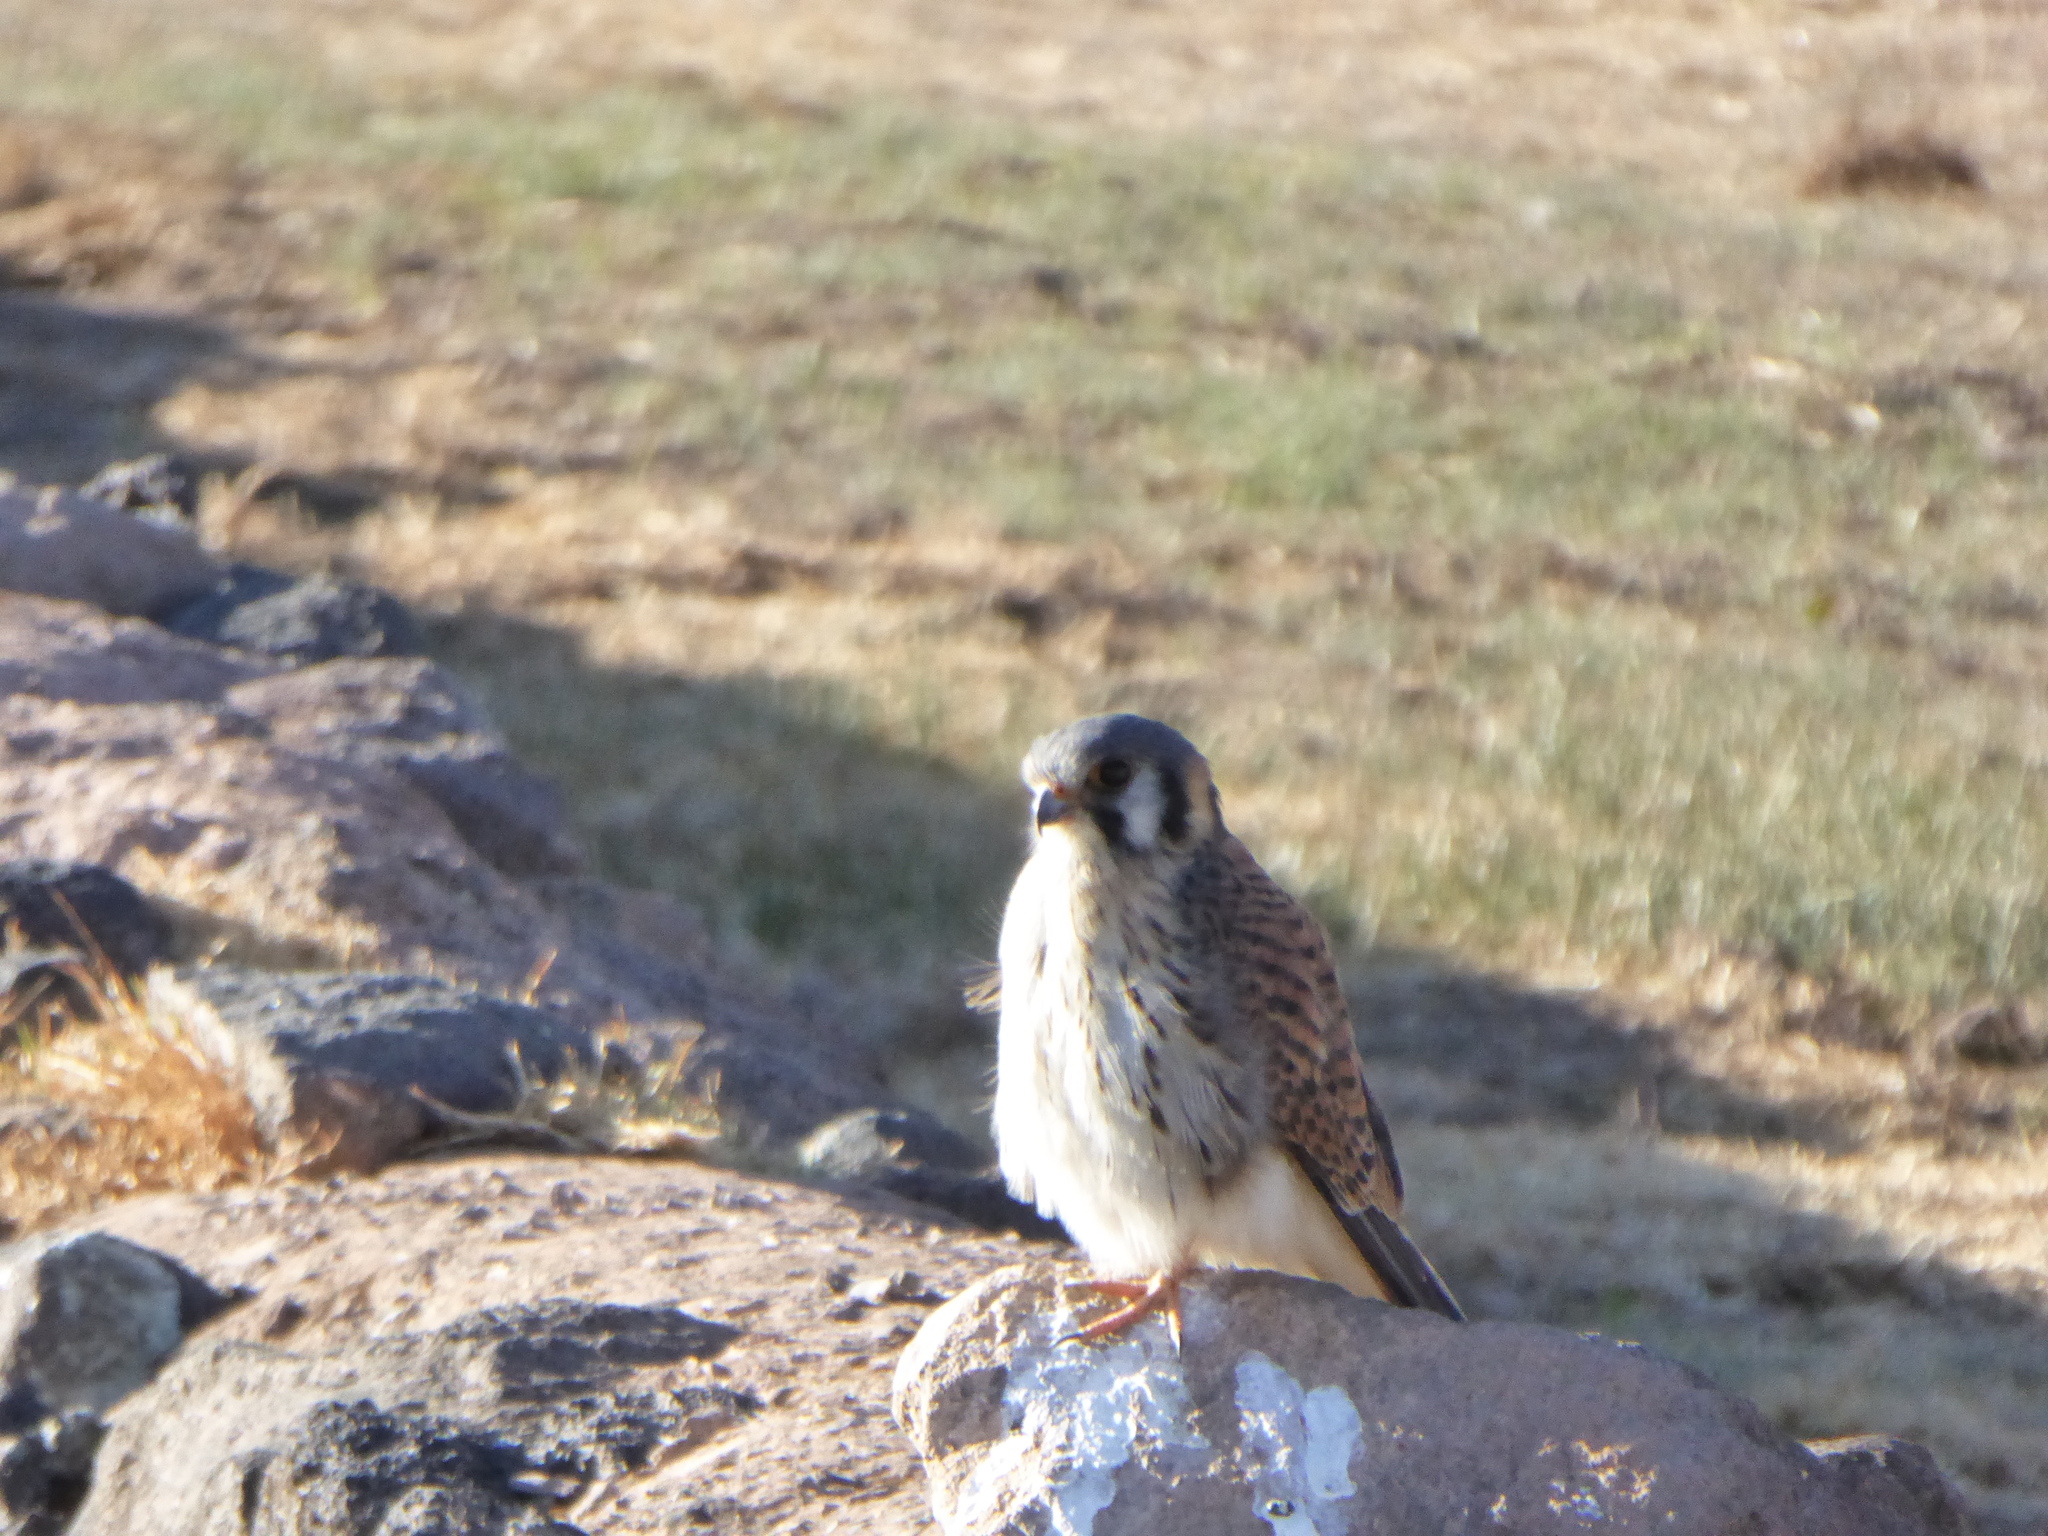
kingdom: Animalia
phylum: Chordata
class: Aves
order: Falconiformes
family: Falconidae
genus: Falco
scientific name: Falco sparverius
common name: American kestrel
